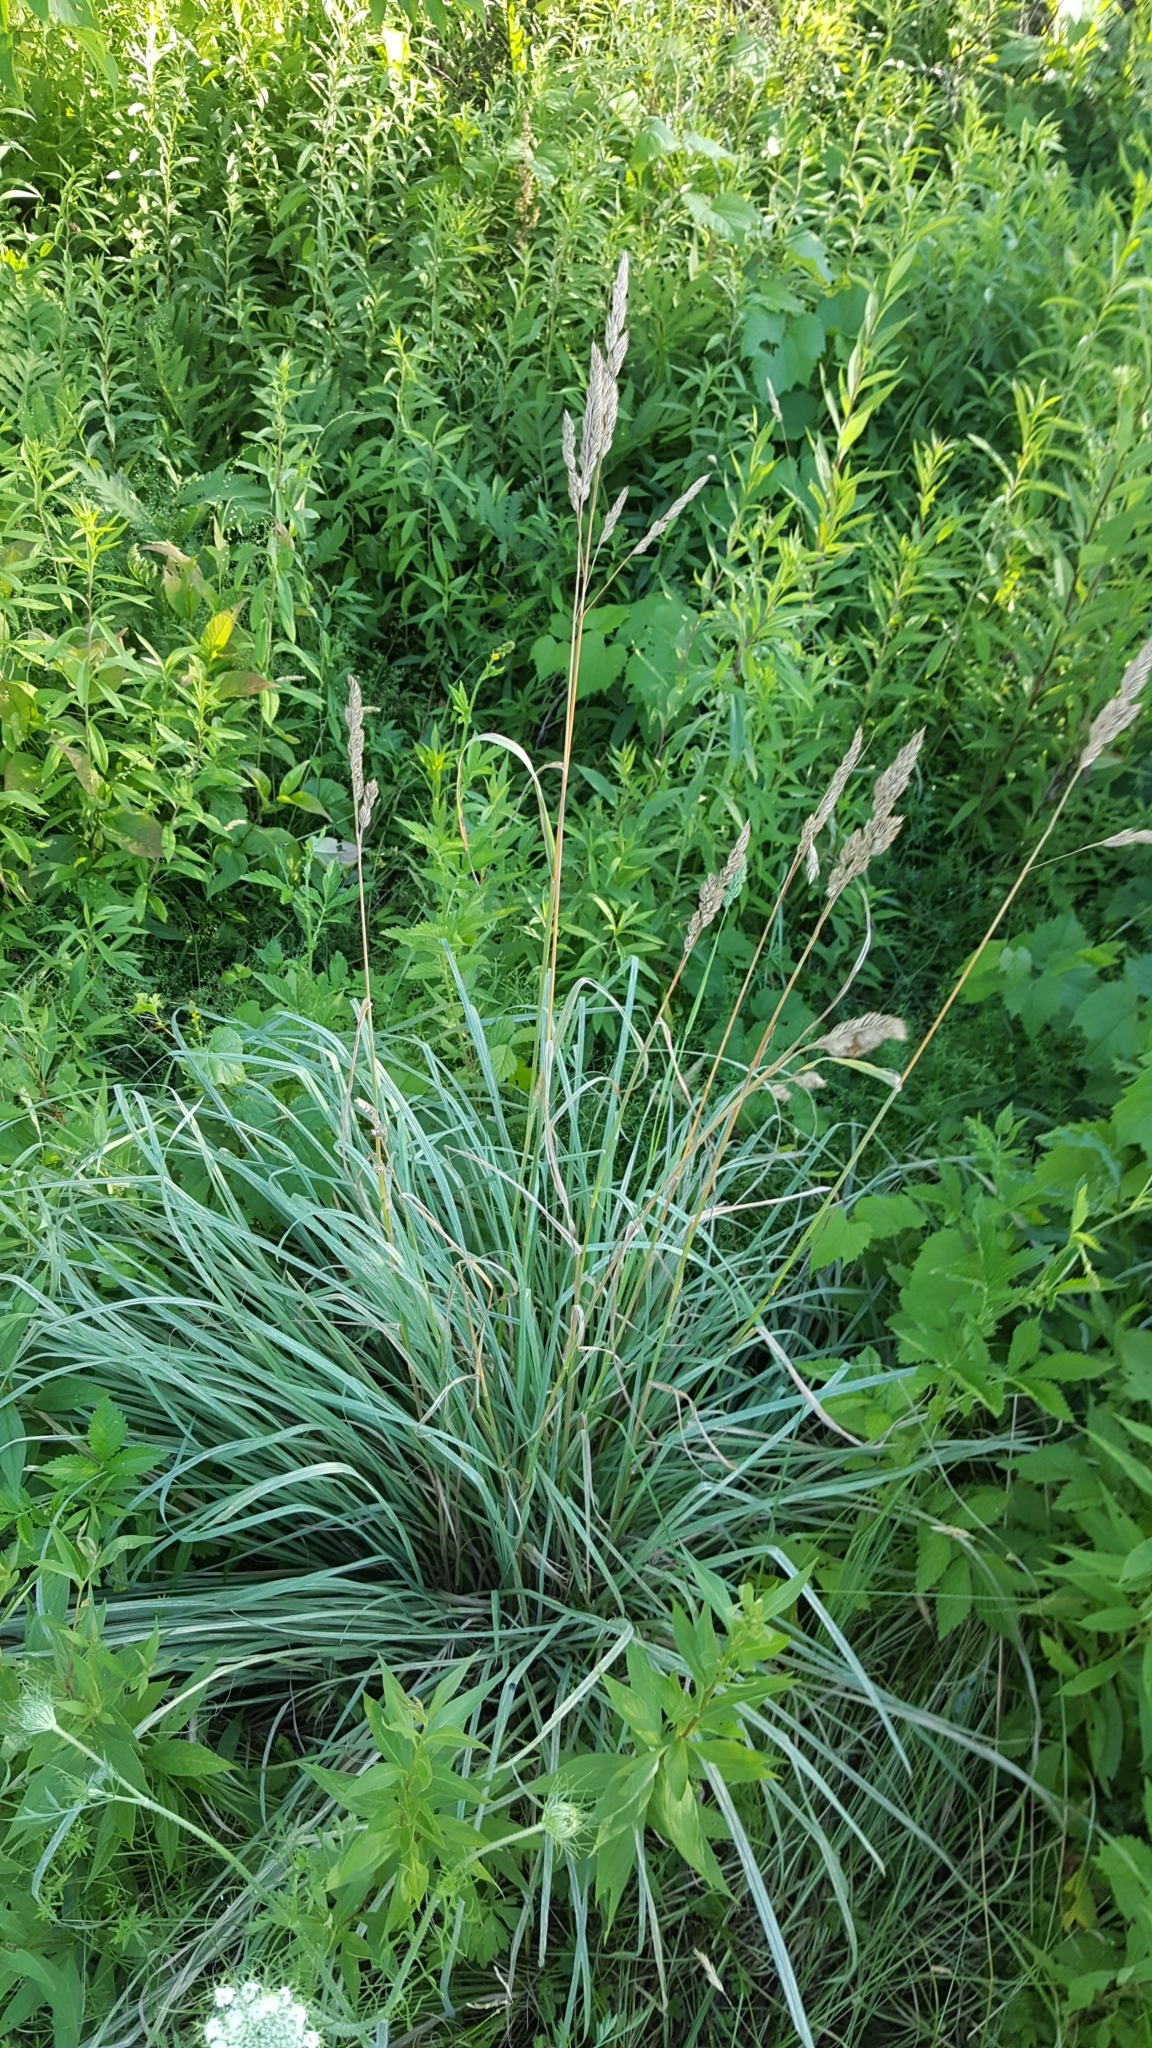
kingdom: Plantae
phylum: Tracheophyta
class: Liliopsida
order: Poales
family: Poaceae
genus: Dactylis
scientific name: Dactylis glomerata
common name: Orchardgrass
